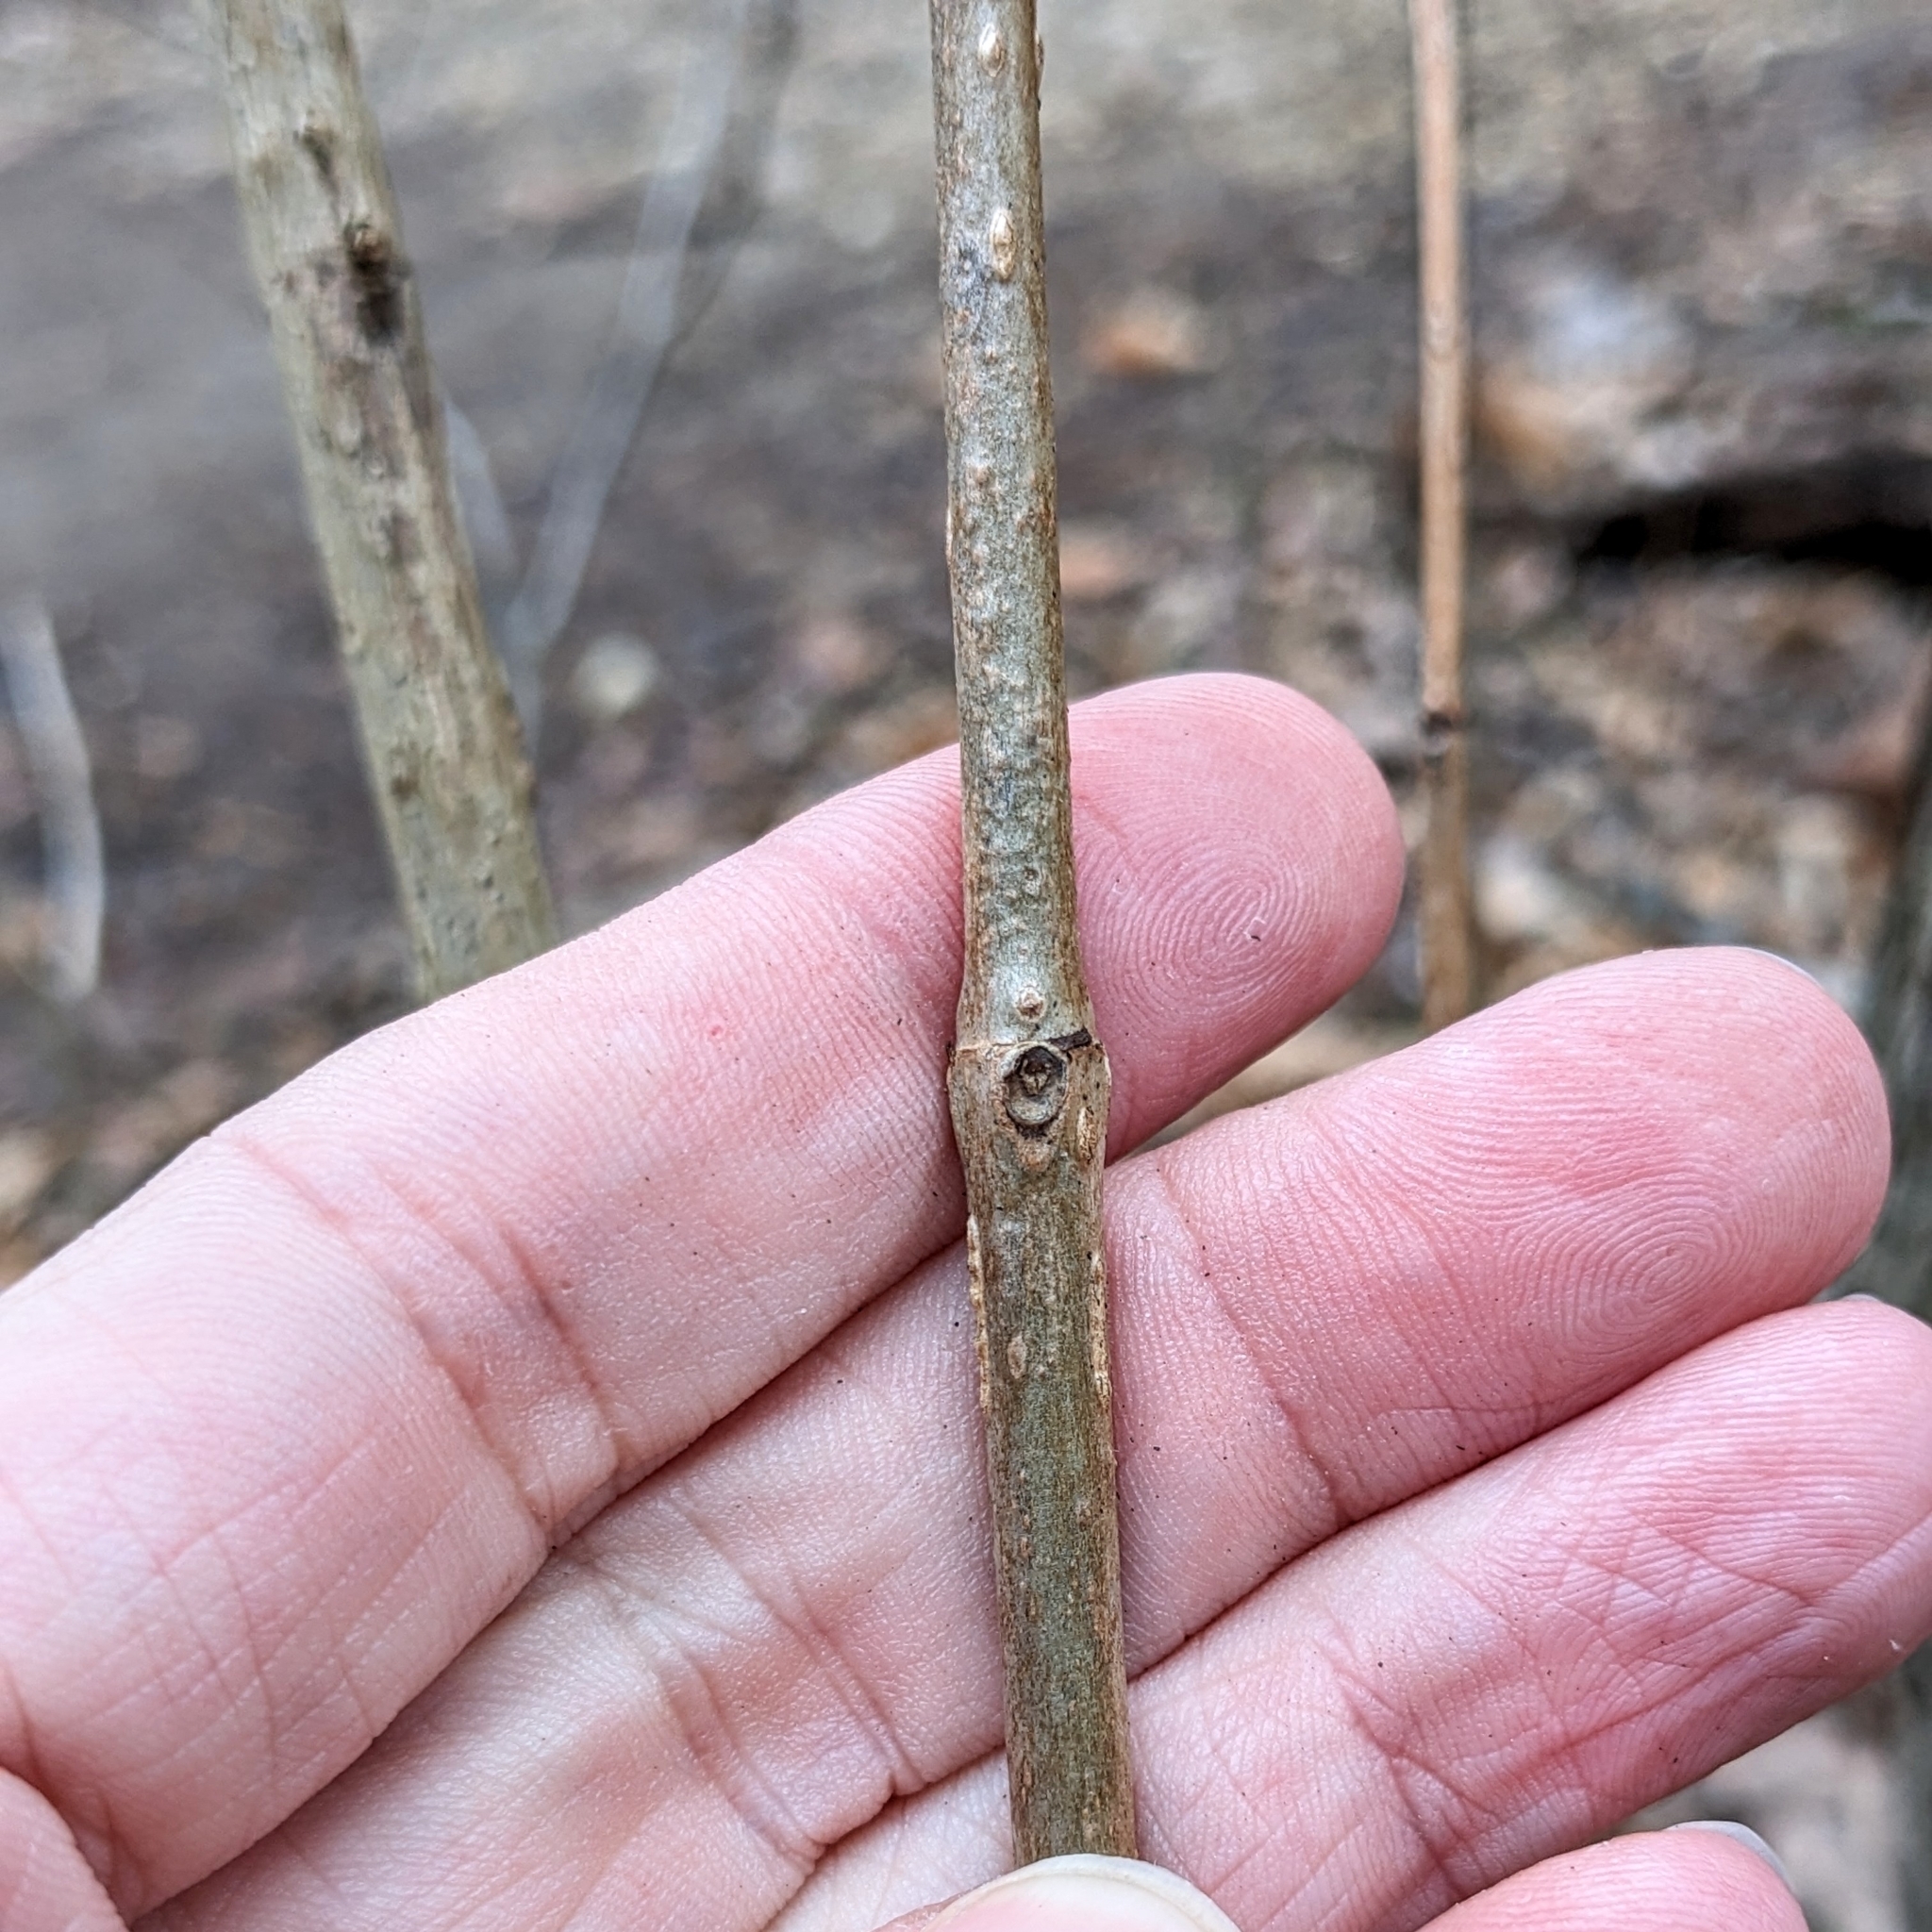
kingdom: Plantae
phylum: Tracheophyta
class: Magnoliopsida
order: Gentianales
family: Rubiaceae
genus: Cephalanthus
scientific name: Cephalanthus occidentalis
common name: Button-willow
